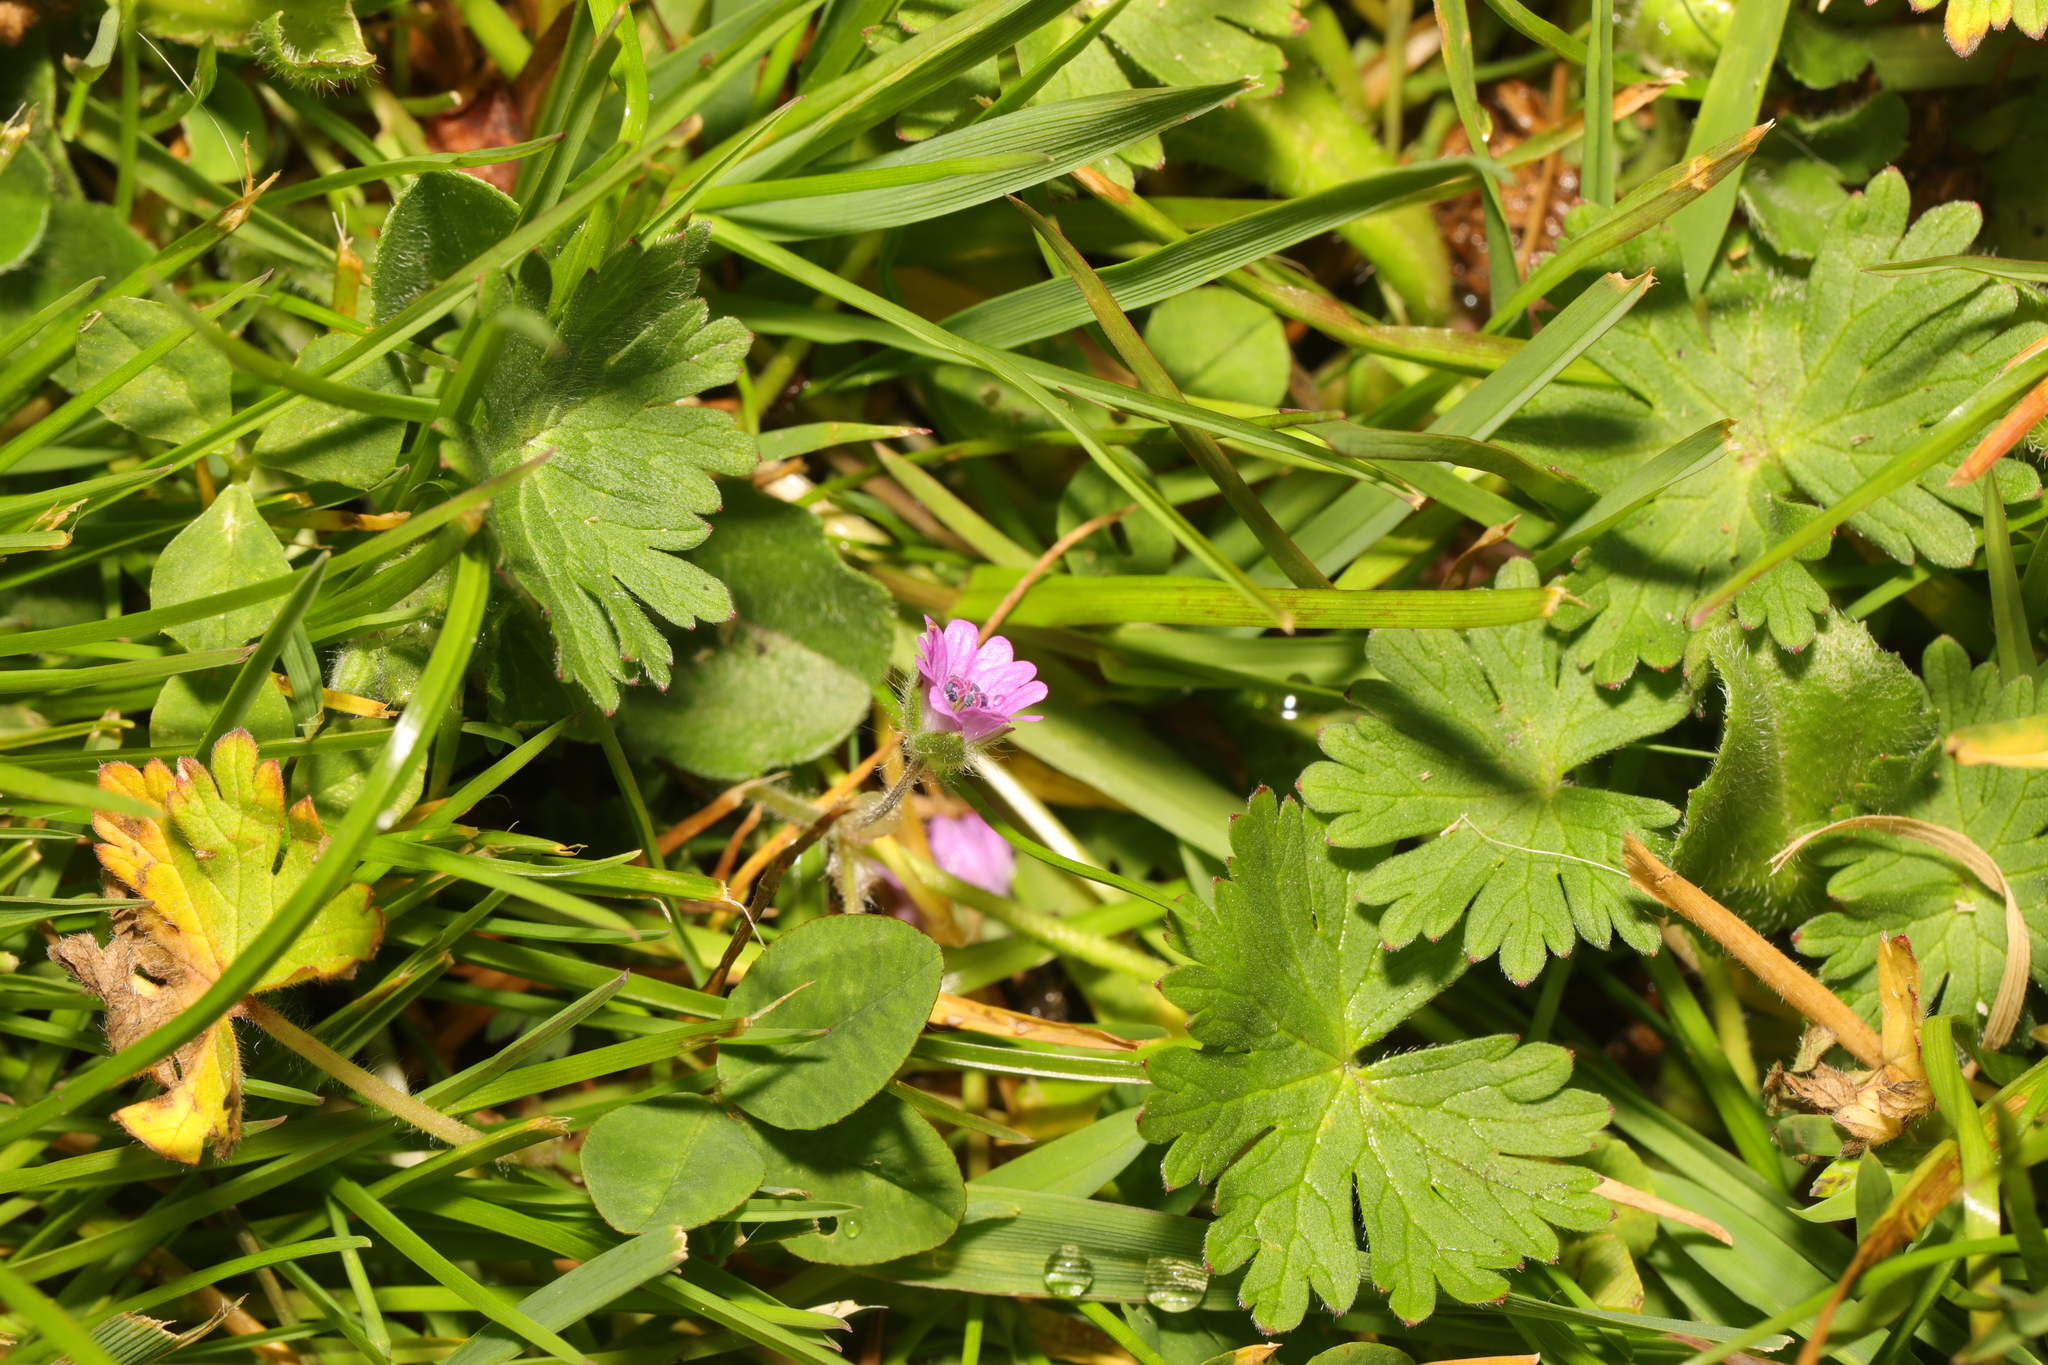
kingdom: Plantae
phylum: Tracheophyta
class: Magnoliopsida
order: Geraniales
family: Geraniaceae
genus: Geranium
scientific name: Geranium molle
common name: Dove's-foot crane's-bill
